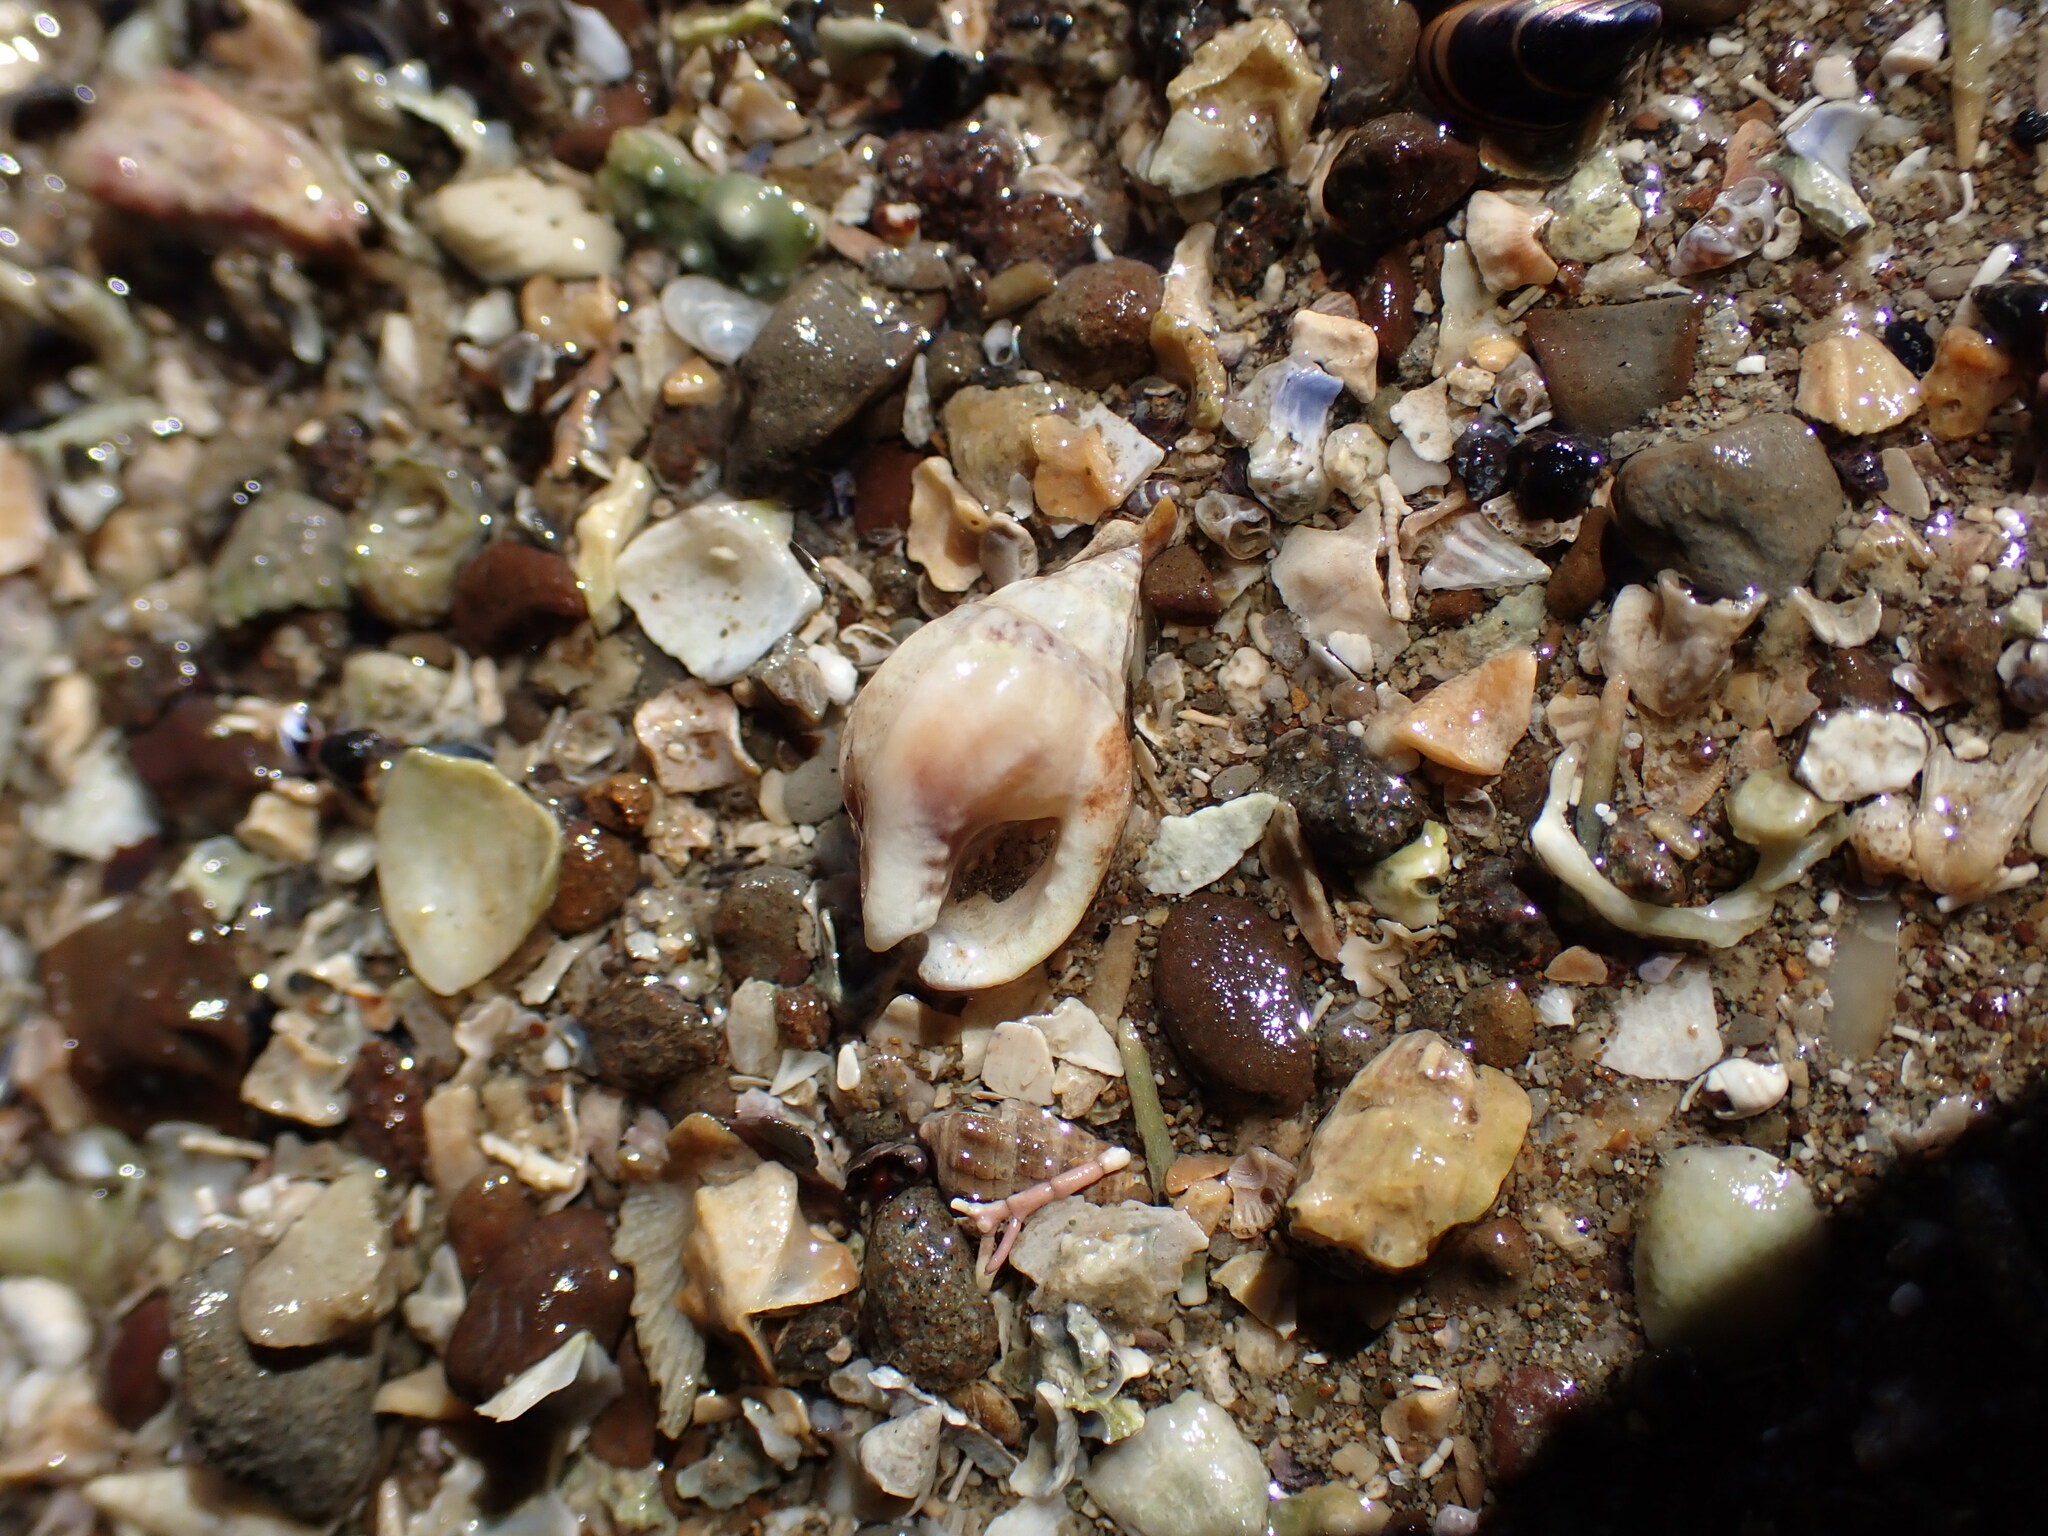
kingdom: Animalia
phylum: Mollusca
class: Gastropoda
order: Neogastropoda
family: Nassariidae
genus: Tritia
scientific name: Tritia burchardi
